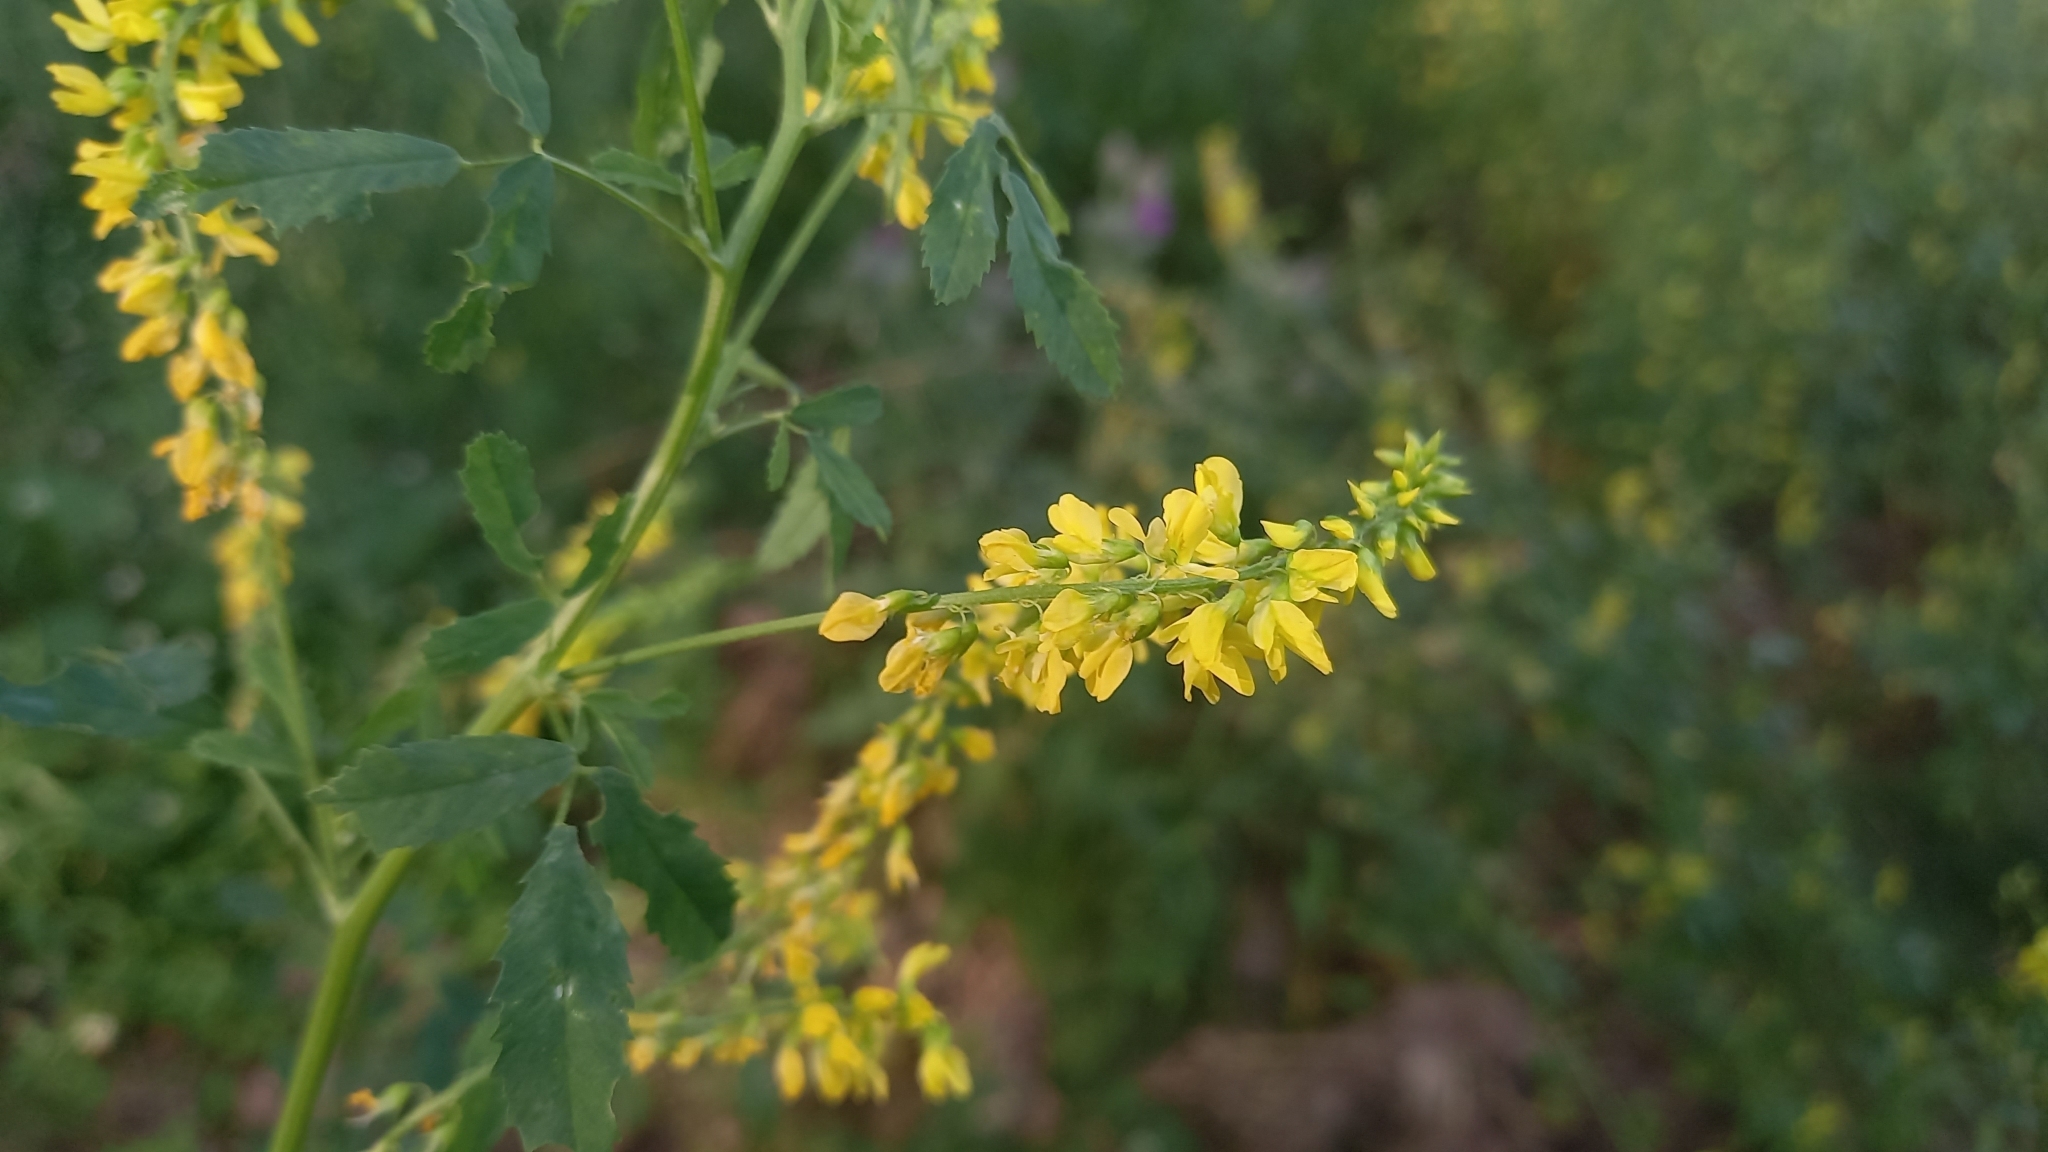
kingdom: Plantae
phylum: Tracheophyta
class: Magnoliopsida
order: Fabales
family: Fabaceae
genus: Melilotus
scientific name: Melilotus officinalis
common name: Sweetclover
